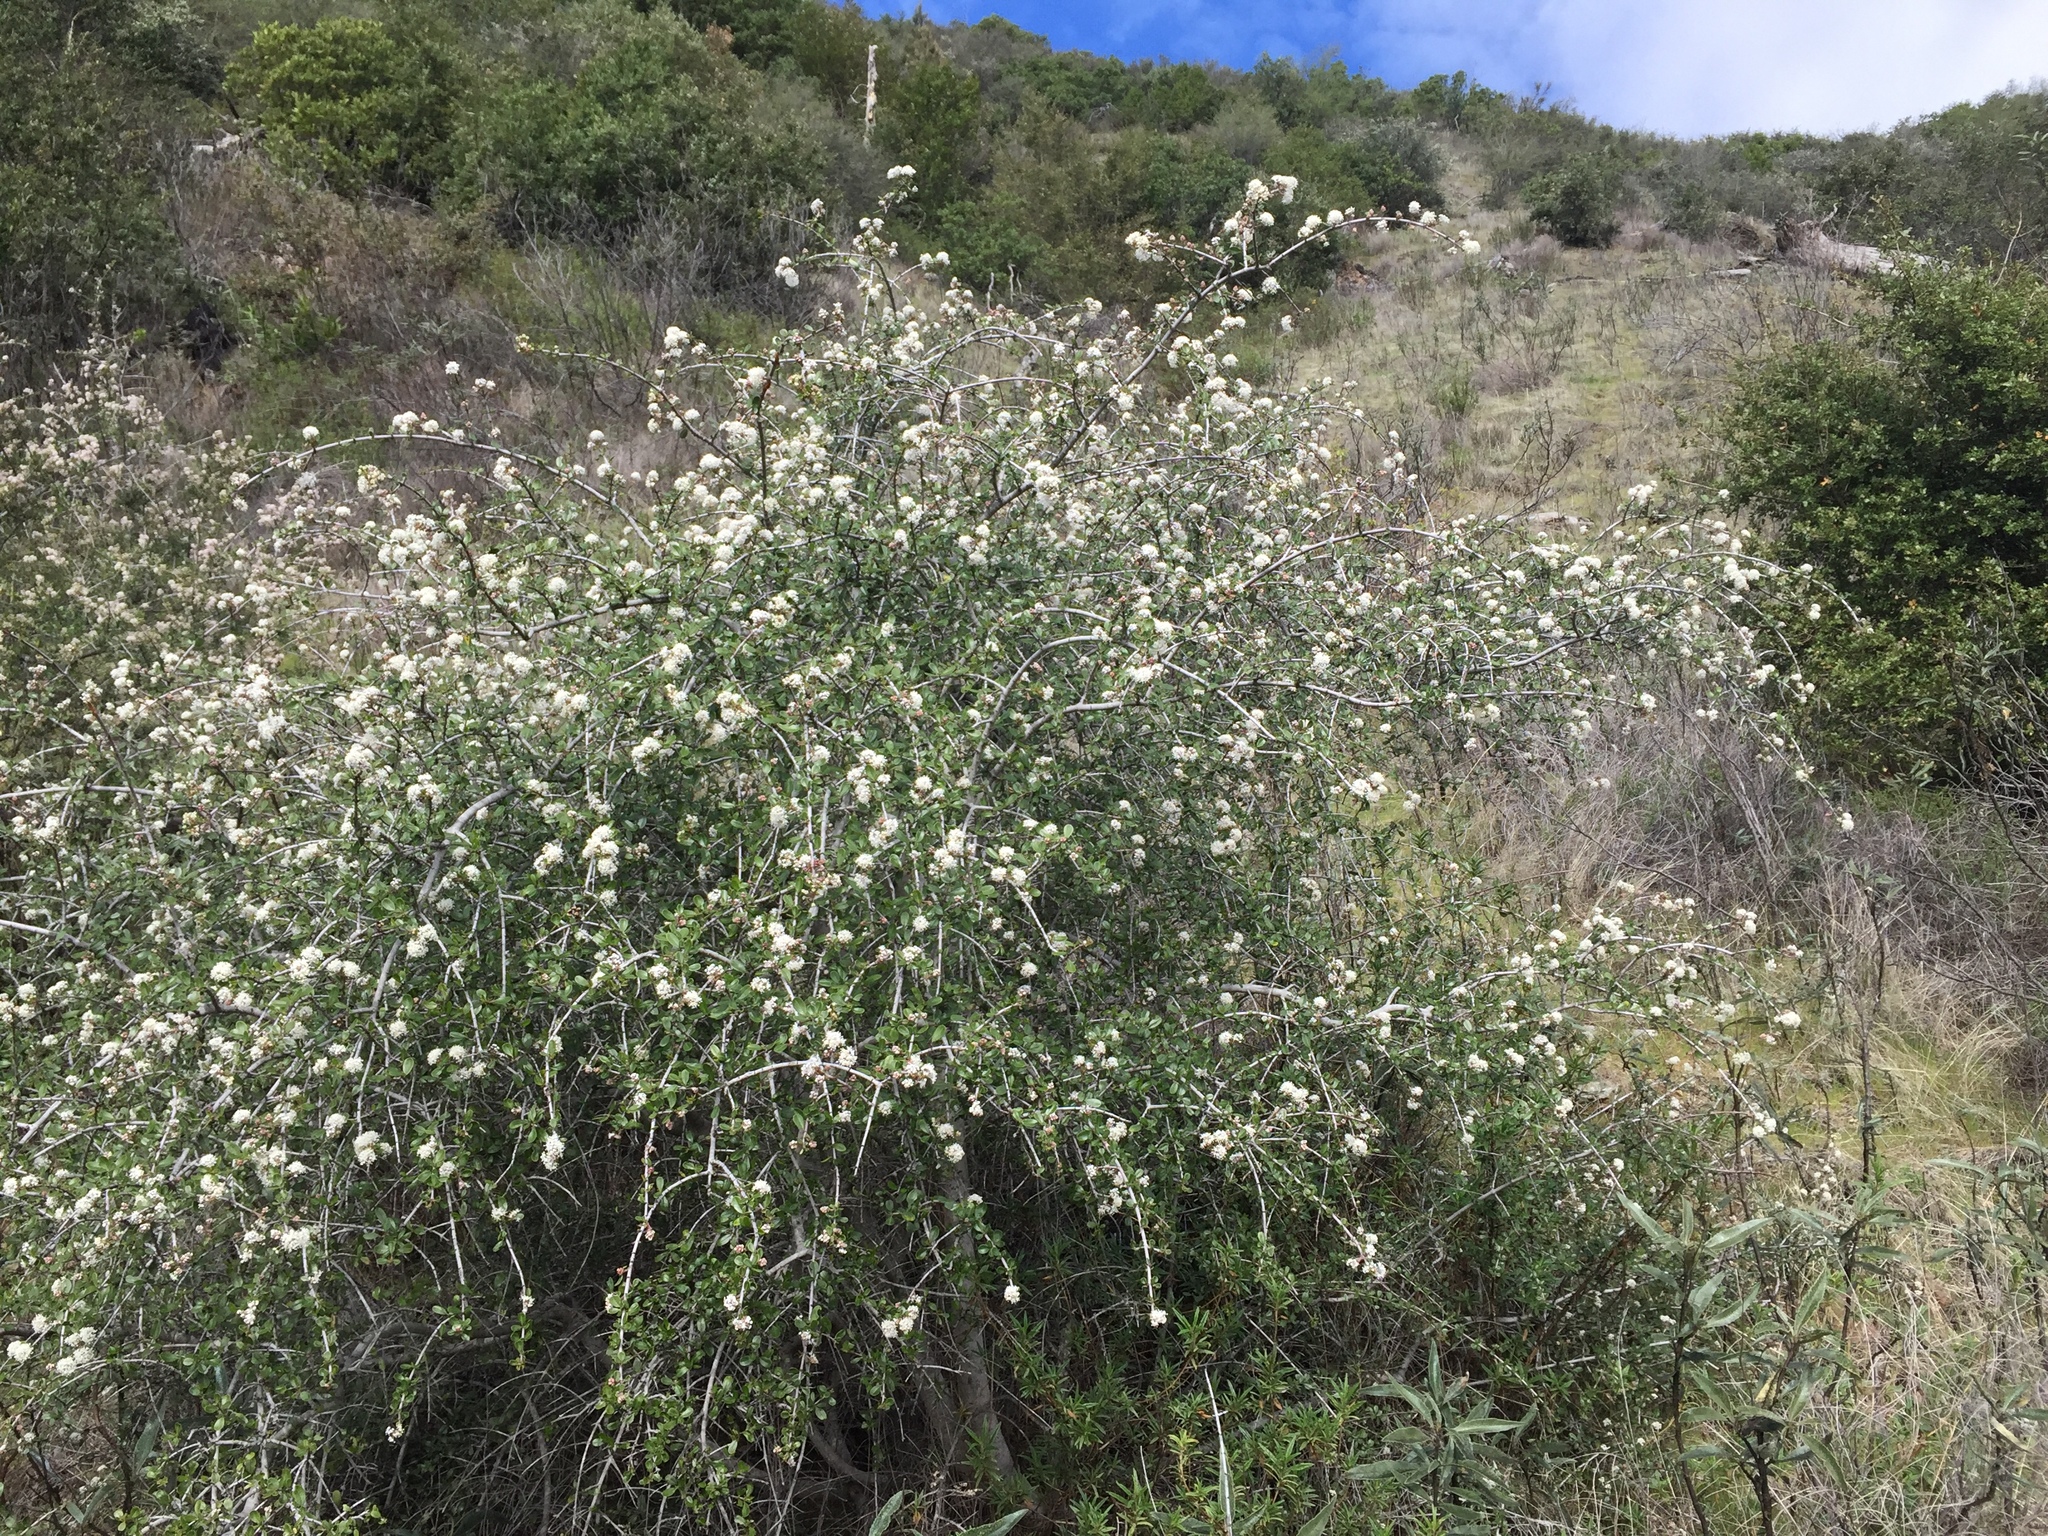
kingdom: Plantae
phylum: Tracheophyta
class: Magnoliopsida
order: Rosales
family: Rhamnaceae
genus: Ceanothus
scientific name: Ceanothus cuneatus
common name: Cuneate ceanothus
